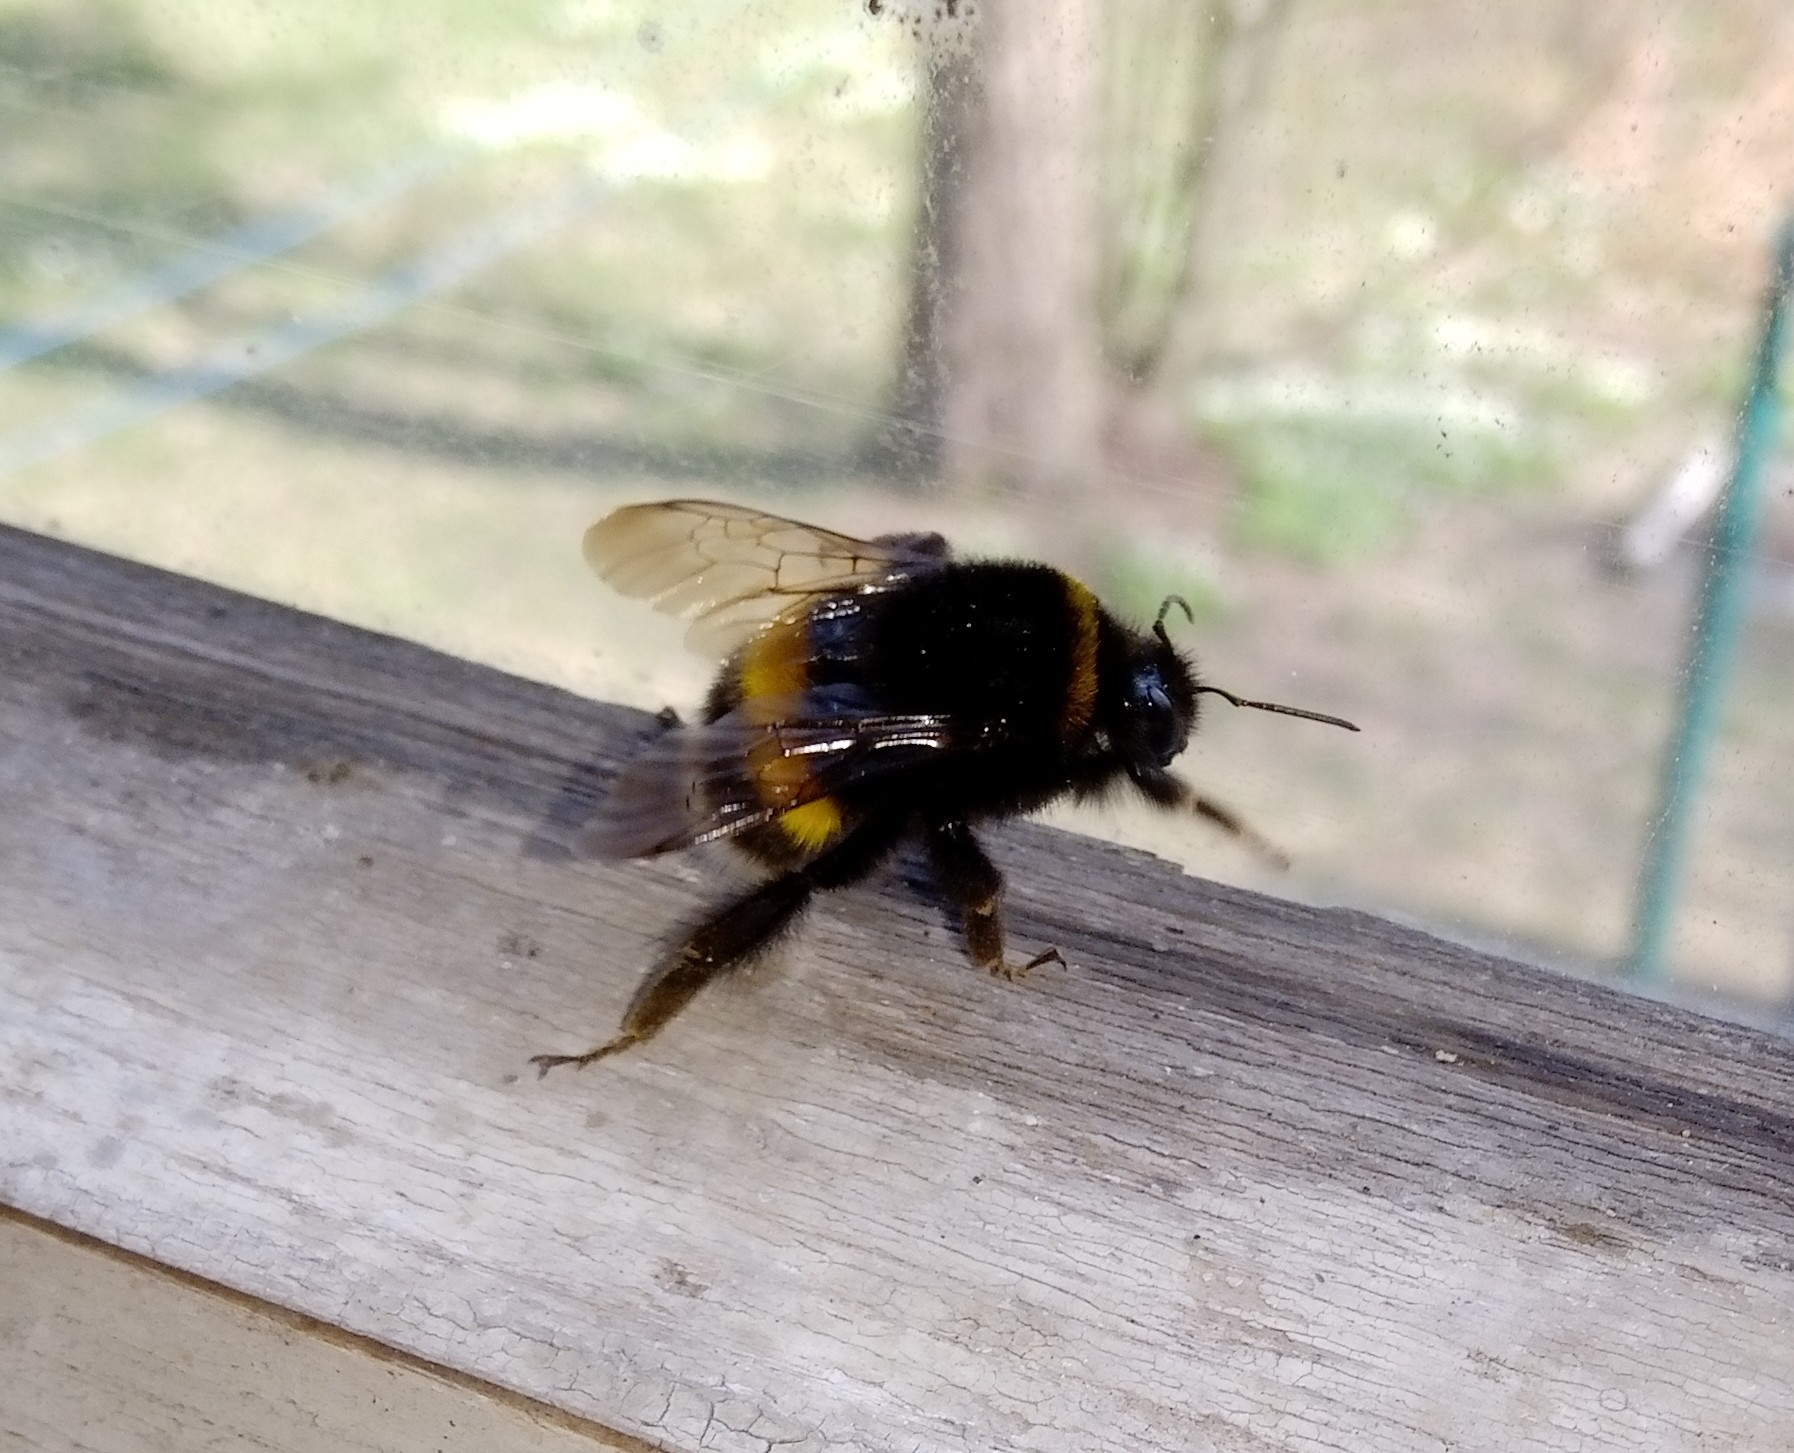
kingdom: Animalia
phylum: Arthropoda
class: Insecta
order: Hymenoptera
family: Apidae
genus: Bombus
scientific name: Bombus terrestris
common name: Buff-tailed bumblebee
